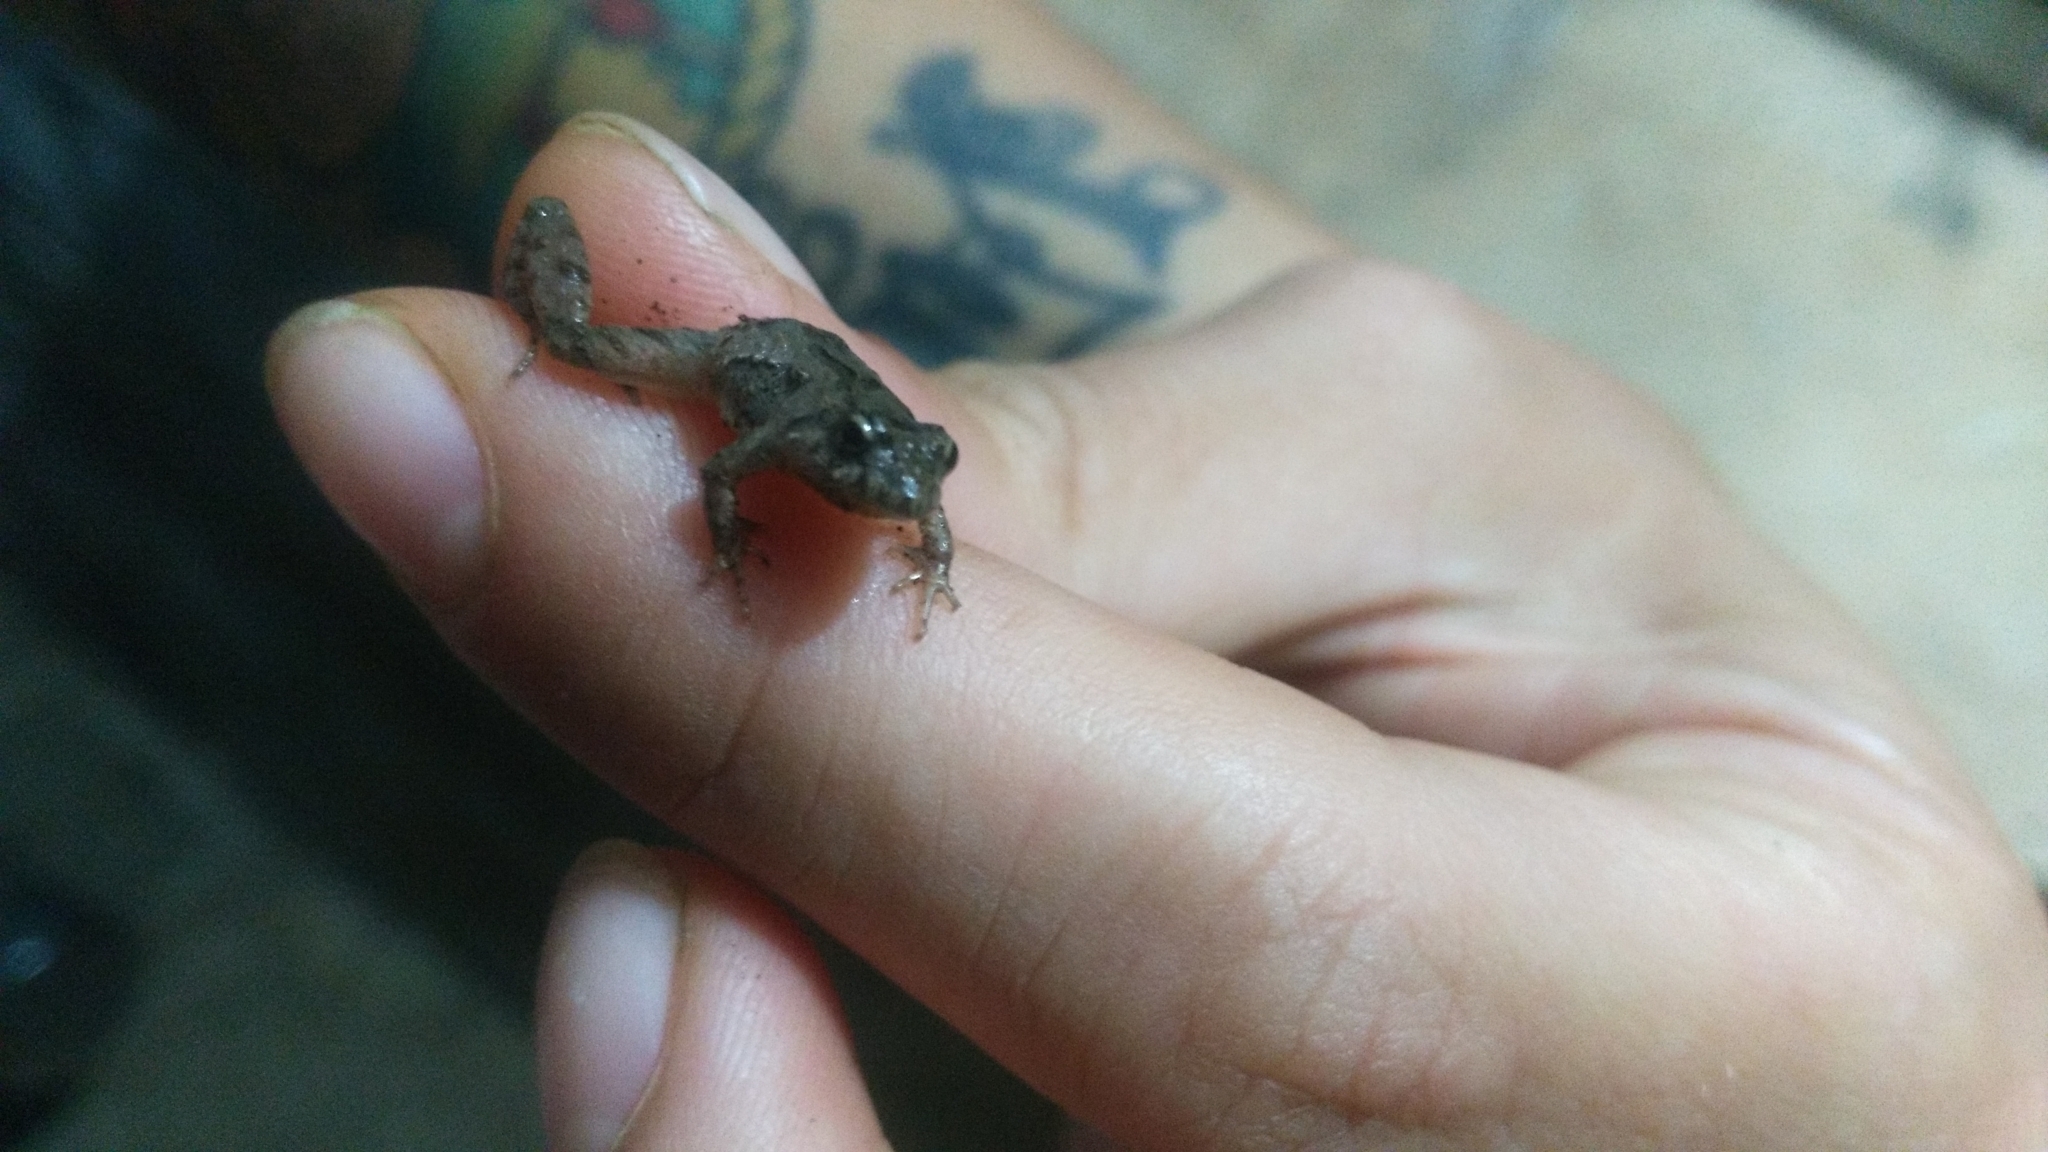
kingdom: Animalia
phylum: Chordata
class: Amphibia
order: Anura
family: Leptodactylidae
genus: Pseudopaludicola
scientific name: Pseudopaludicola falcipes
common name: Hensel’s swamp frog
